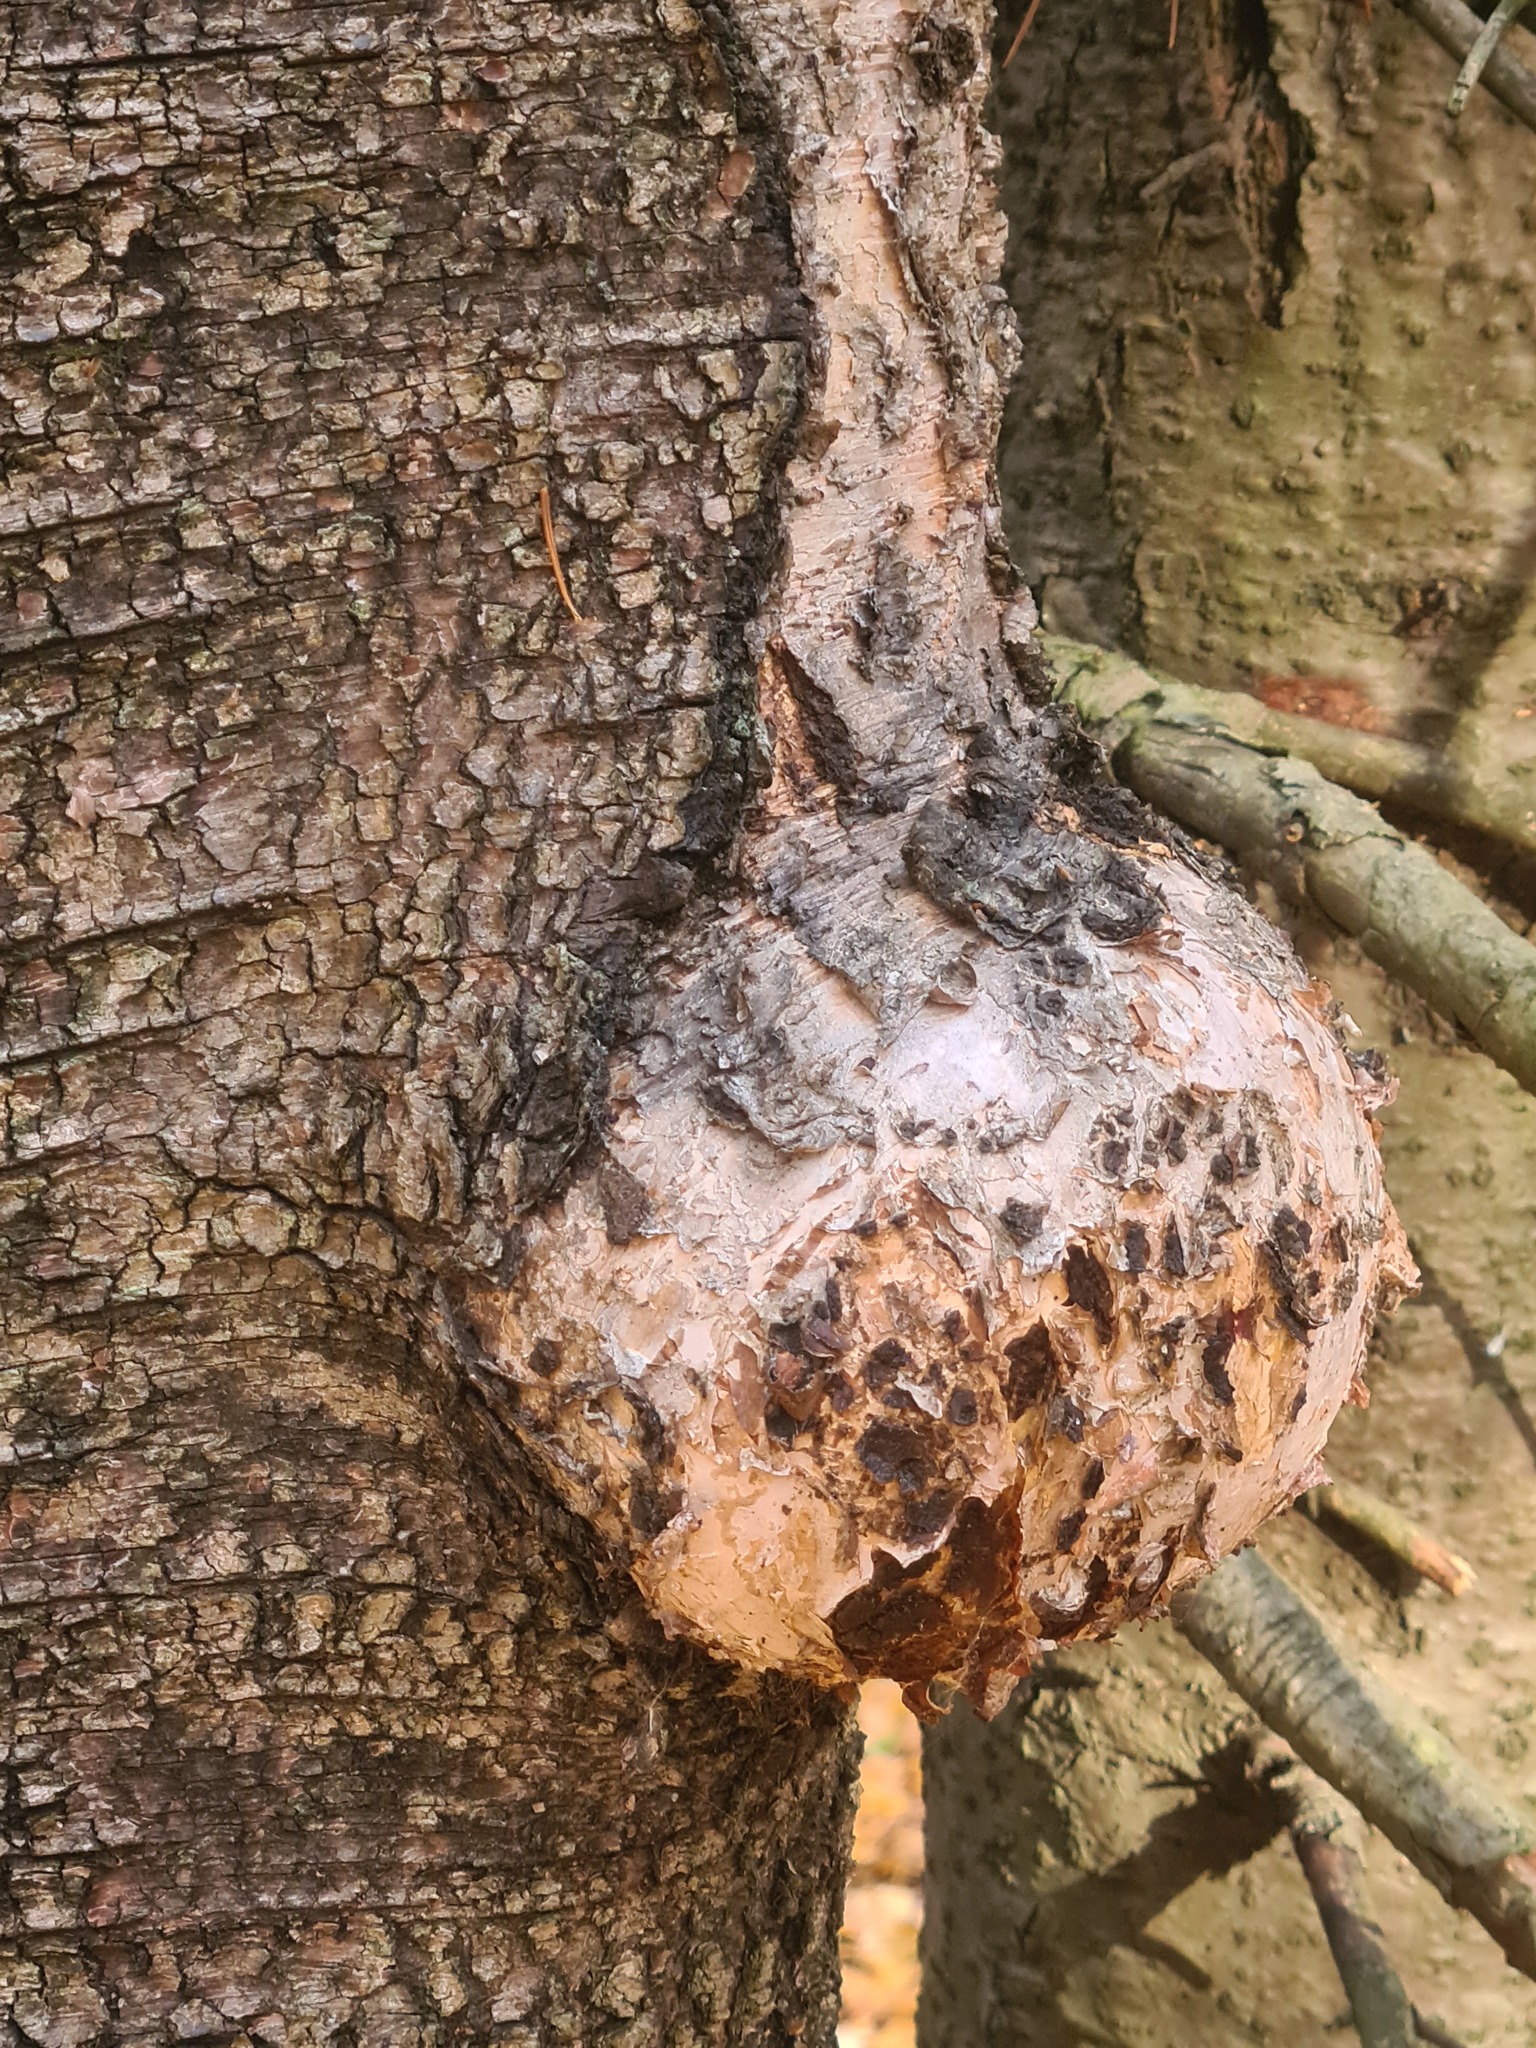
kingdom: Bacteria
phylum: Proteobacteria
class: Alphaproteobacteria
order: Rhizobiales
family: Rhizobiaceae
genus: Rhizobium
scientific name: Rhizobium Agrobacterium radiobacter
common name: Bacterial crown gall
